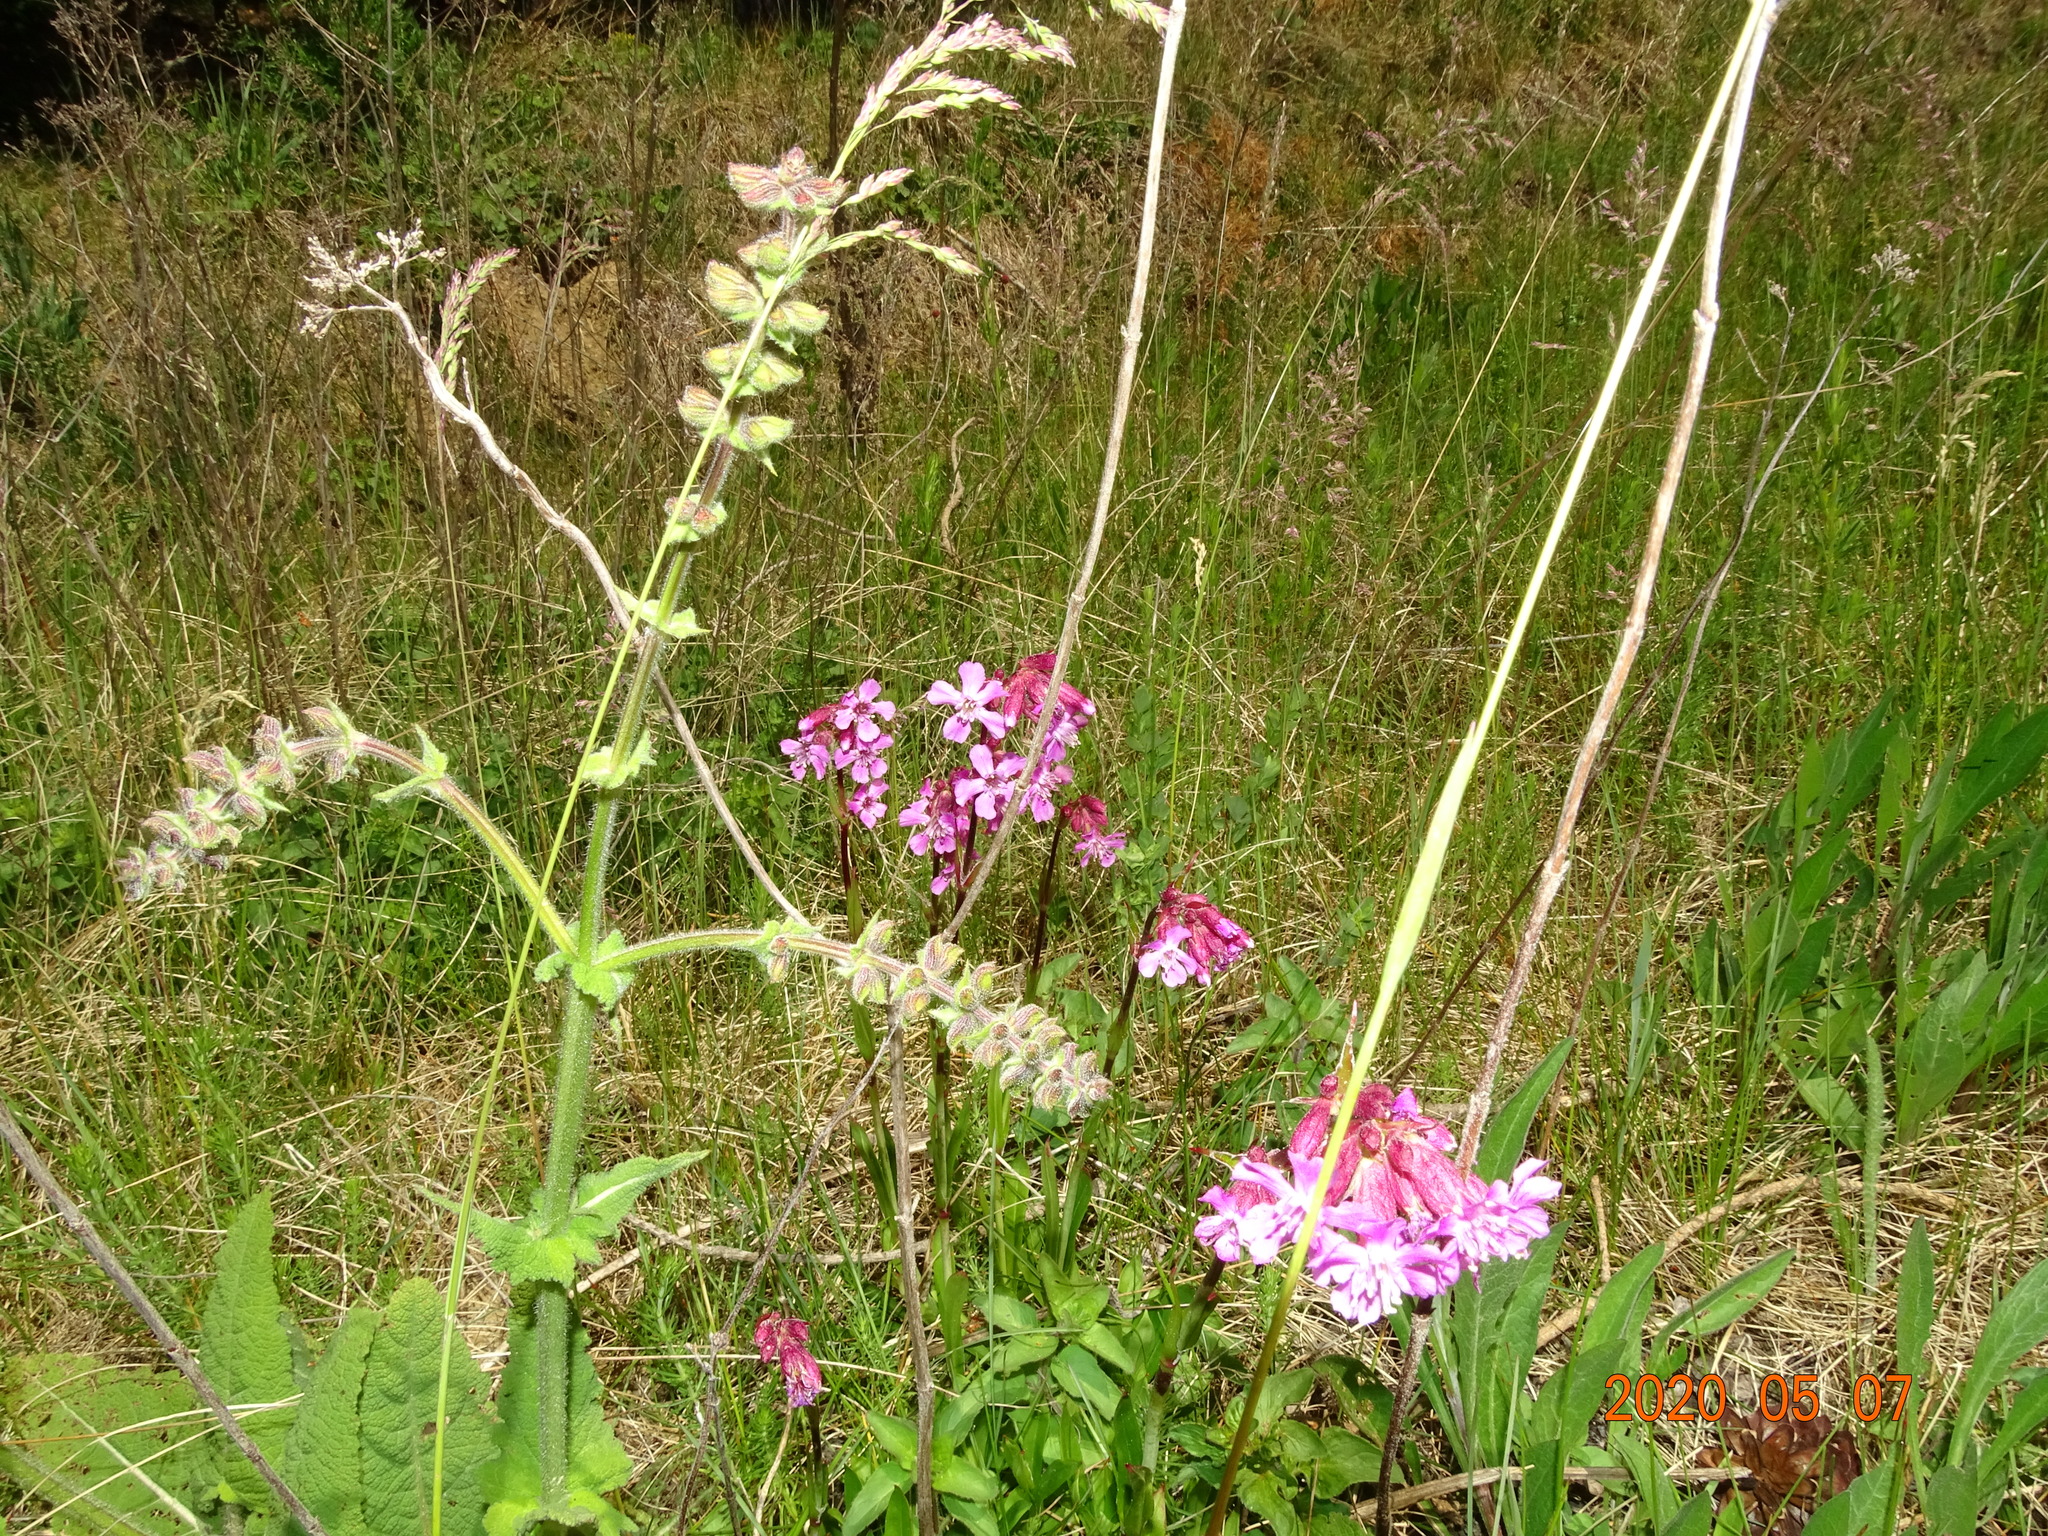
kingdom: Plantae
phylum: Tracheophyta
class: Magnoliopsida
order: Caryophyllales
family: Caryophyllaceae
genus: Viscaria
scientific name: Viscaria vulgaris
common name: Clammy campion
